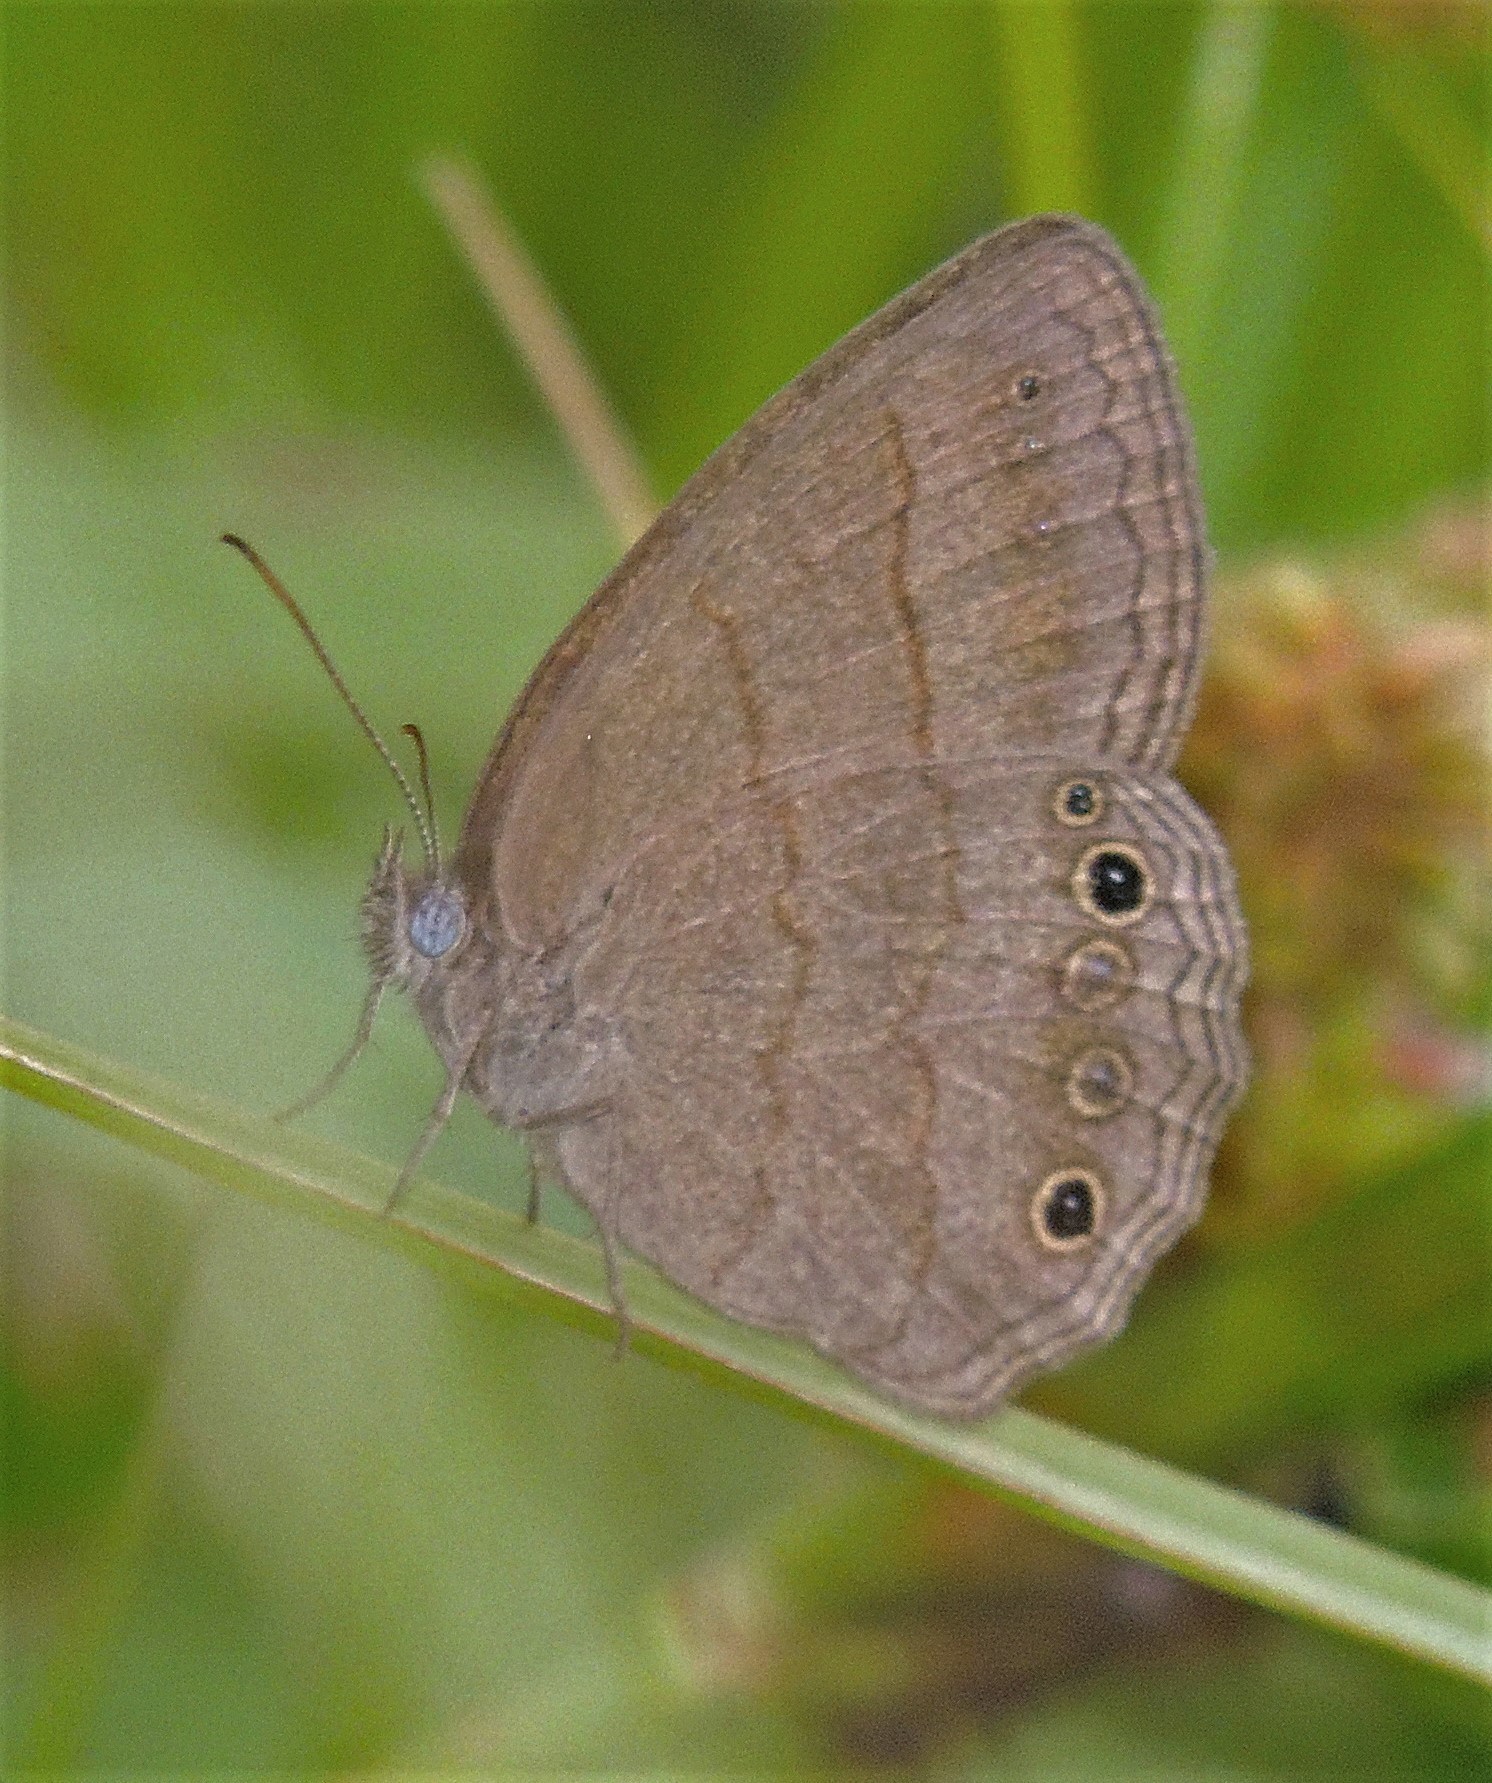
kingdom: Animalia
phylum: Arthropoda
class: Insecta
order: Lepidoptera
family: Nymphalidae
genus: Malaveria
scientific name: Malaveria
